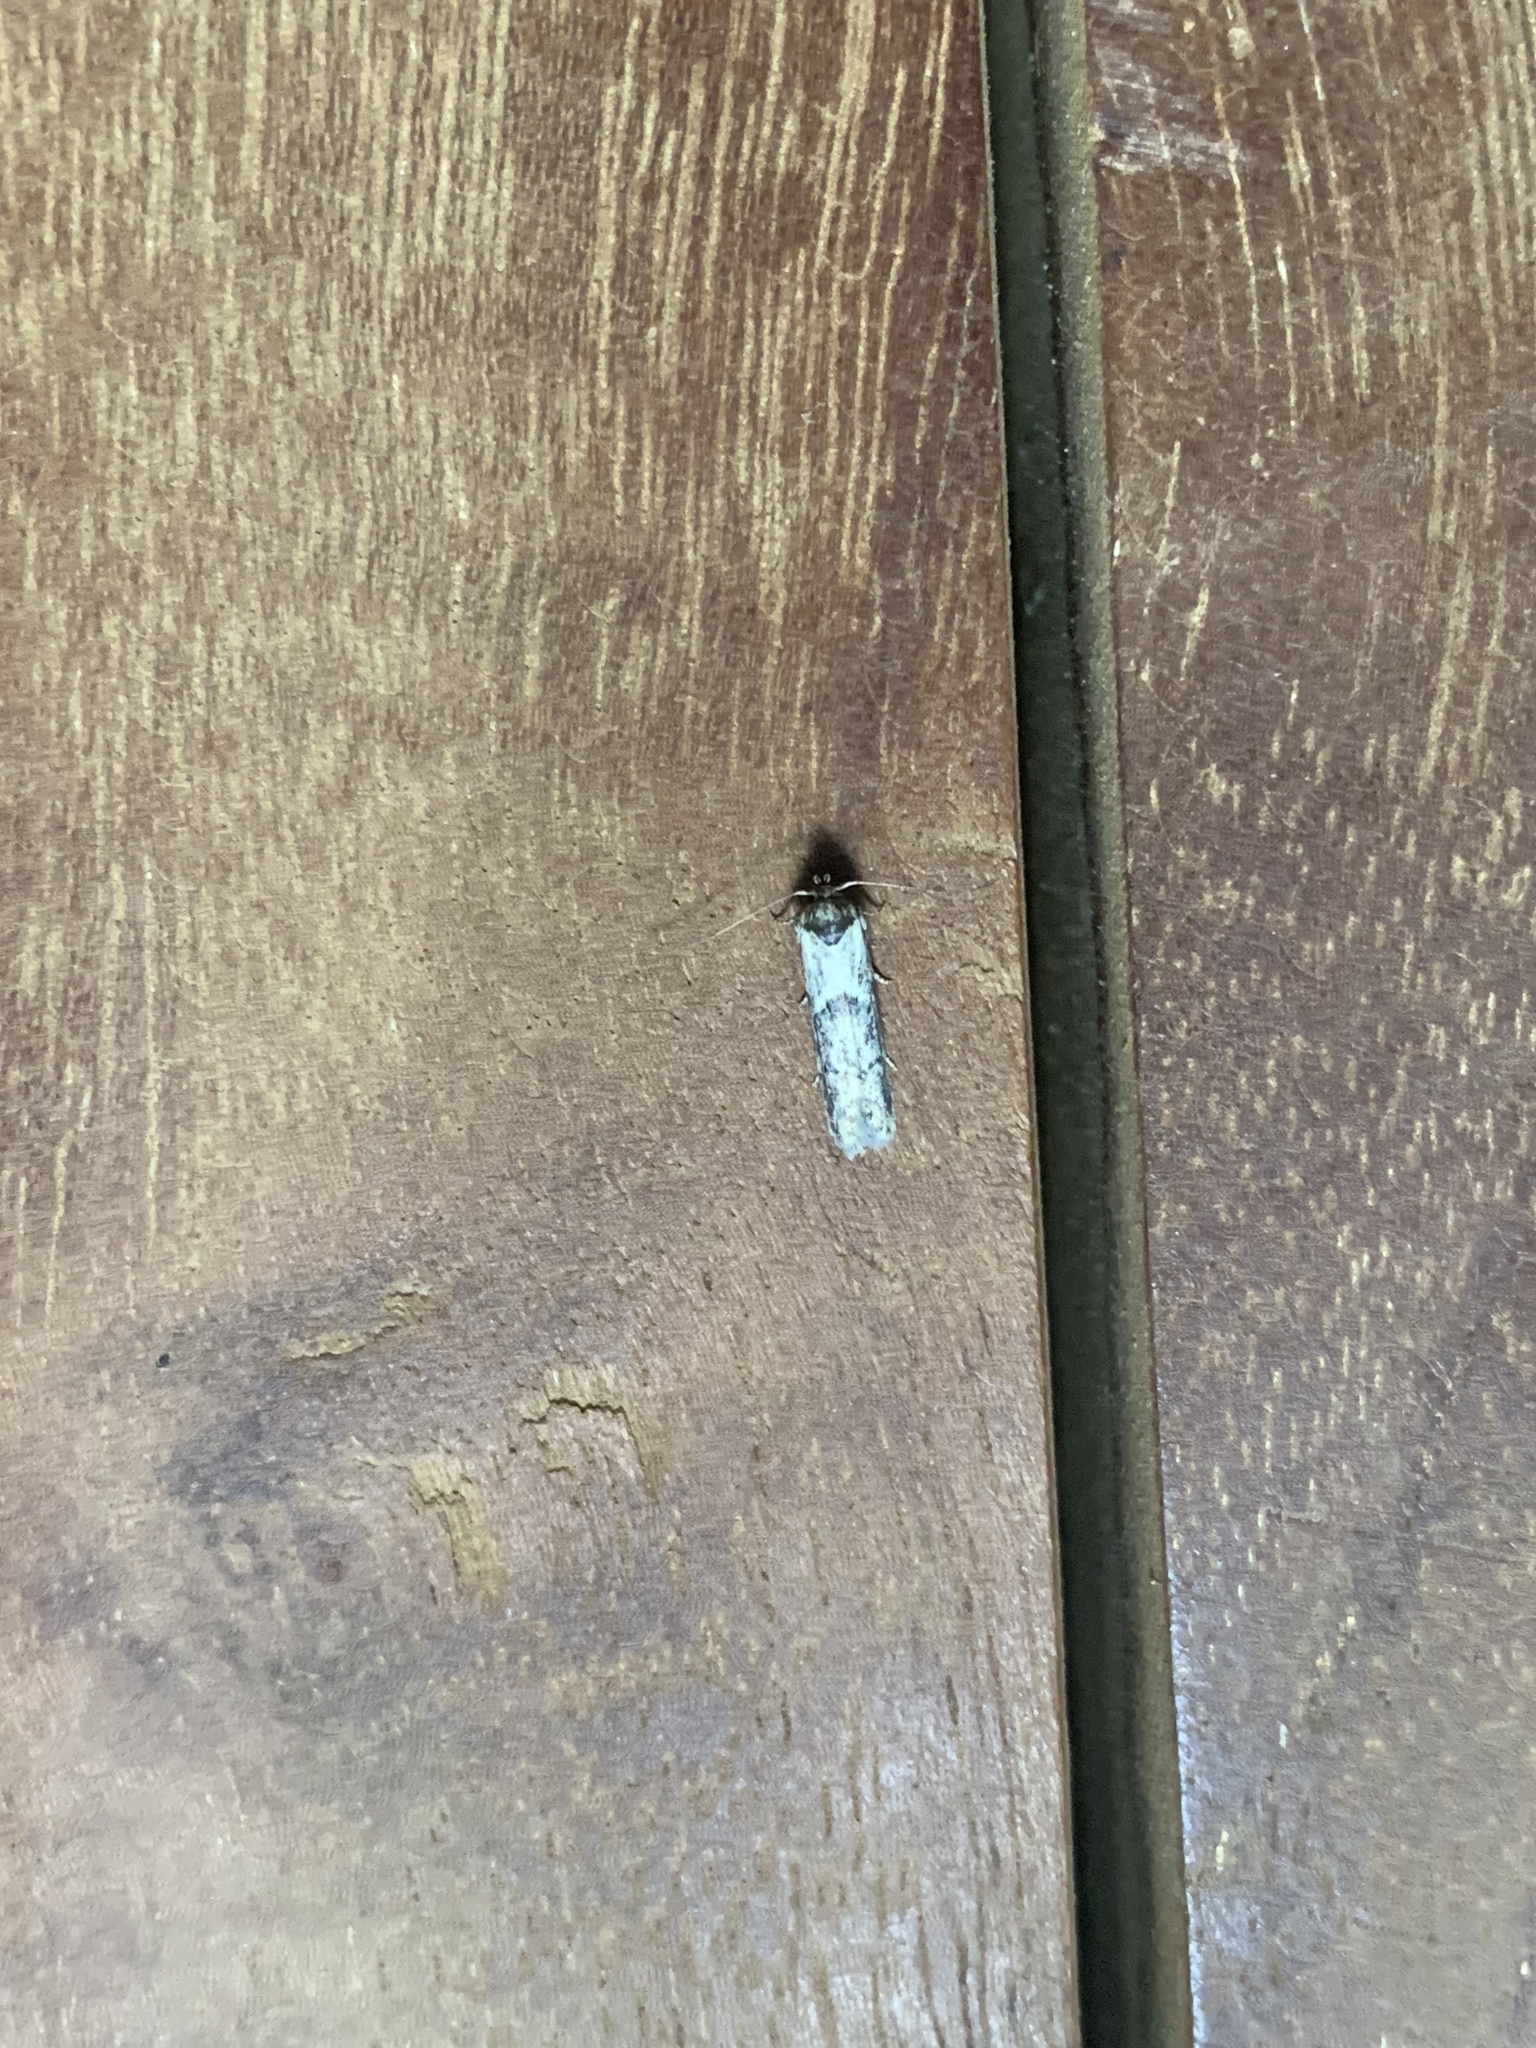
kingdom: Animalia
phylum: Arthropoda
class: Insecta
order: Lepidoptera
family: Blastobasidae
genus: Blastobasis
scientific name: Blastobasis adustella
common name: Dingy dowd
